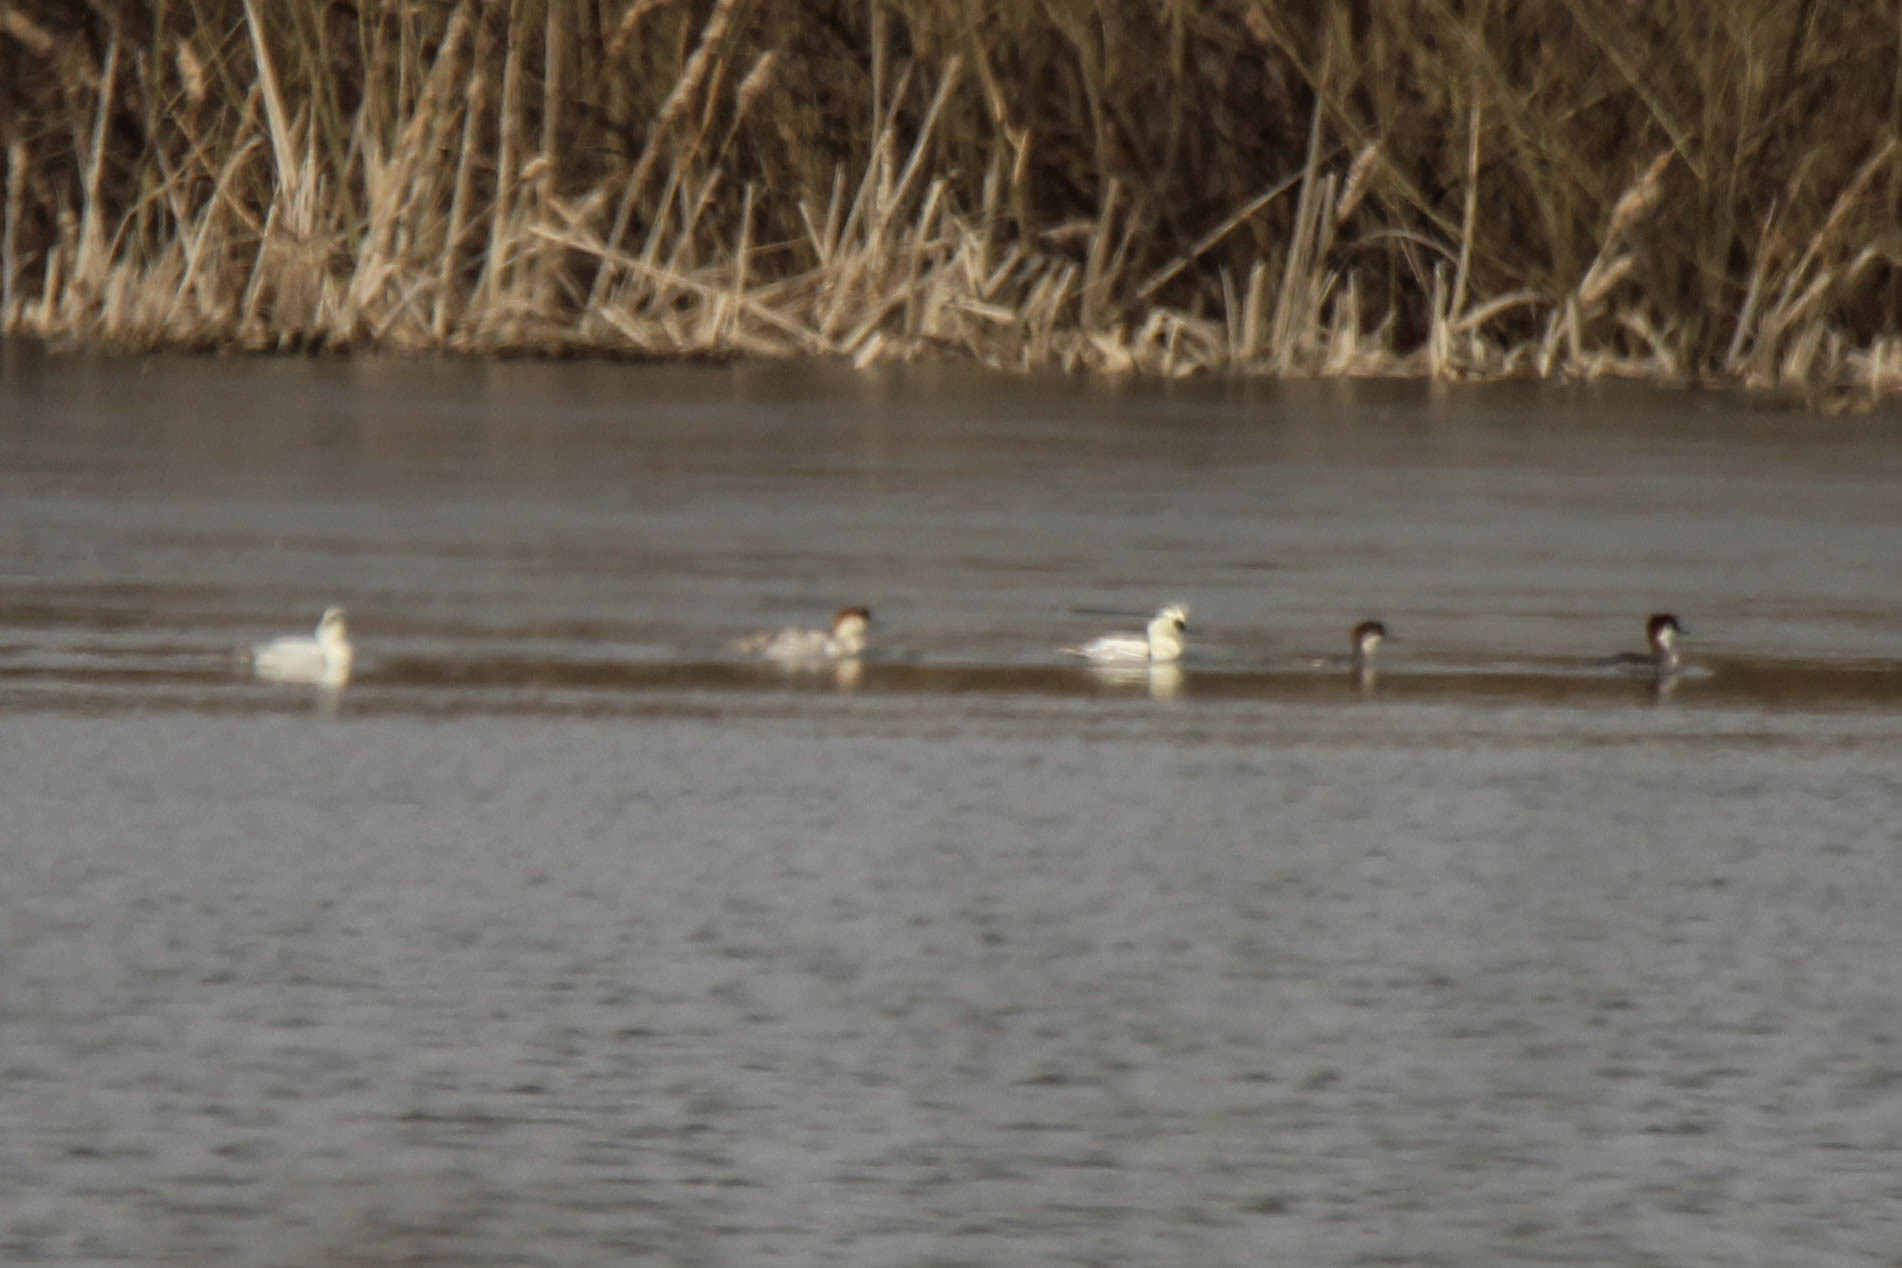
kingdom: Animalia
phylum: Chordata
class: Aves
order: Anseriformes
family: Anatidae
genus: Mergellus
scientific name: Mergellus albellus
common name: Smew
